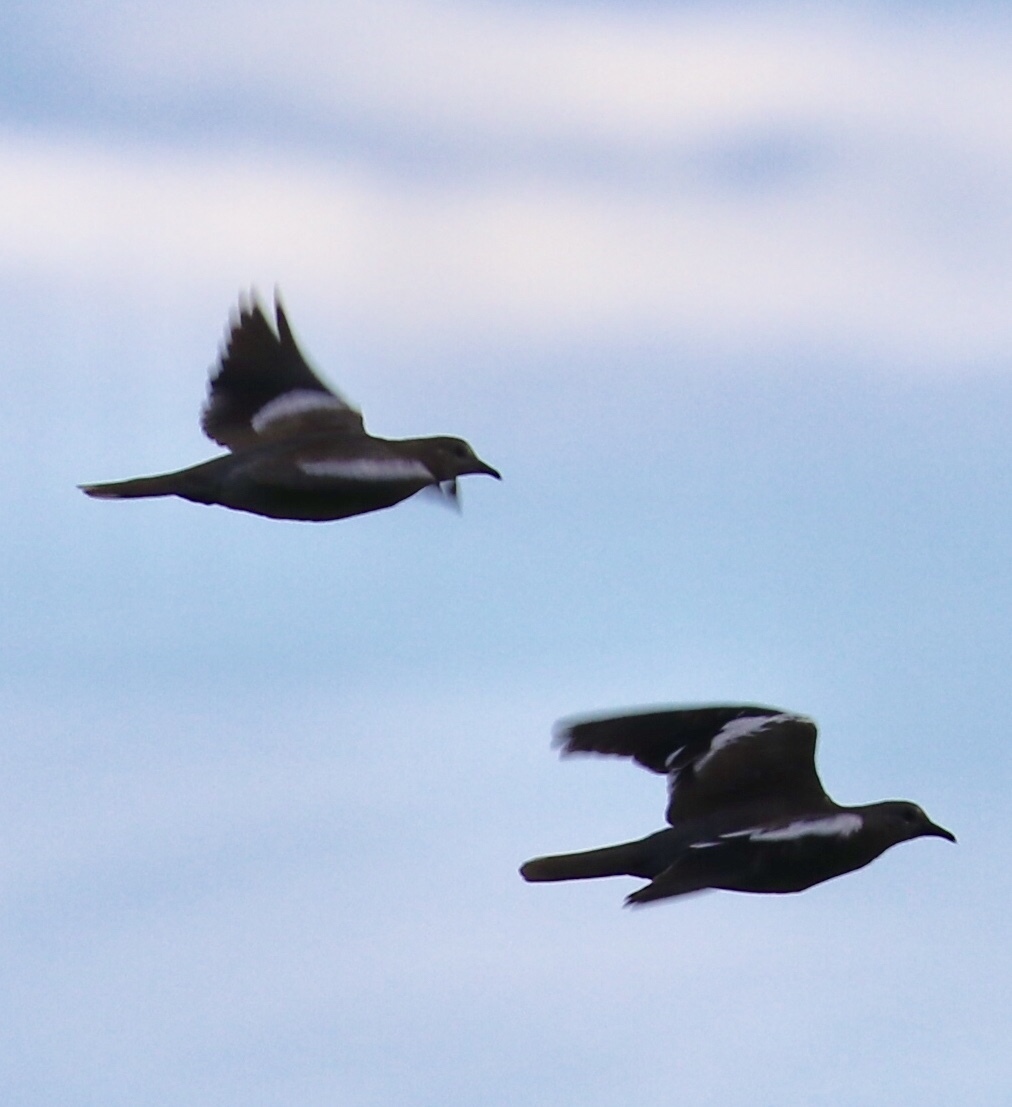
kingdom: Animalia
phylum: Chordata
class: Aves
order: Columbiformes
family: Columbidae
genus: Zenaida
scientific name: Zenaida asiatica
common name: White-winged dove
